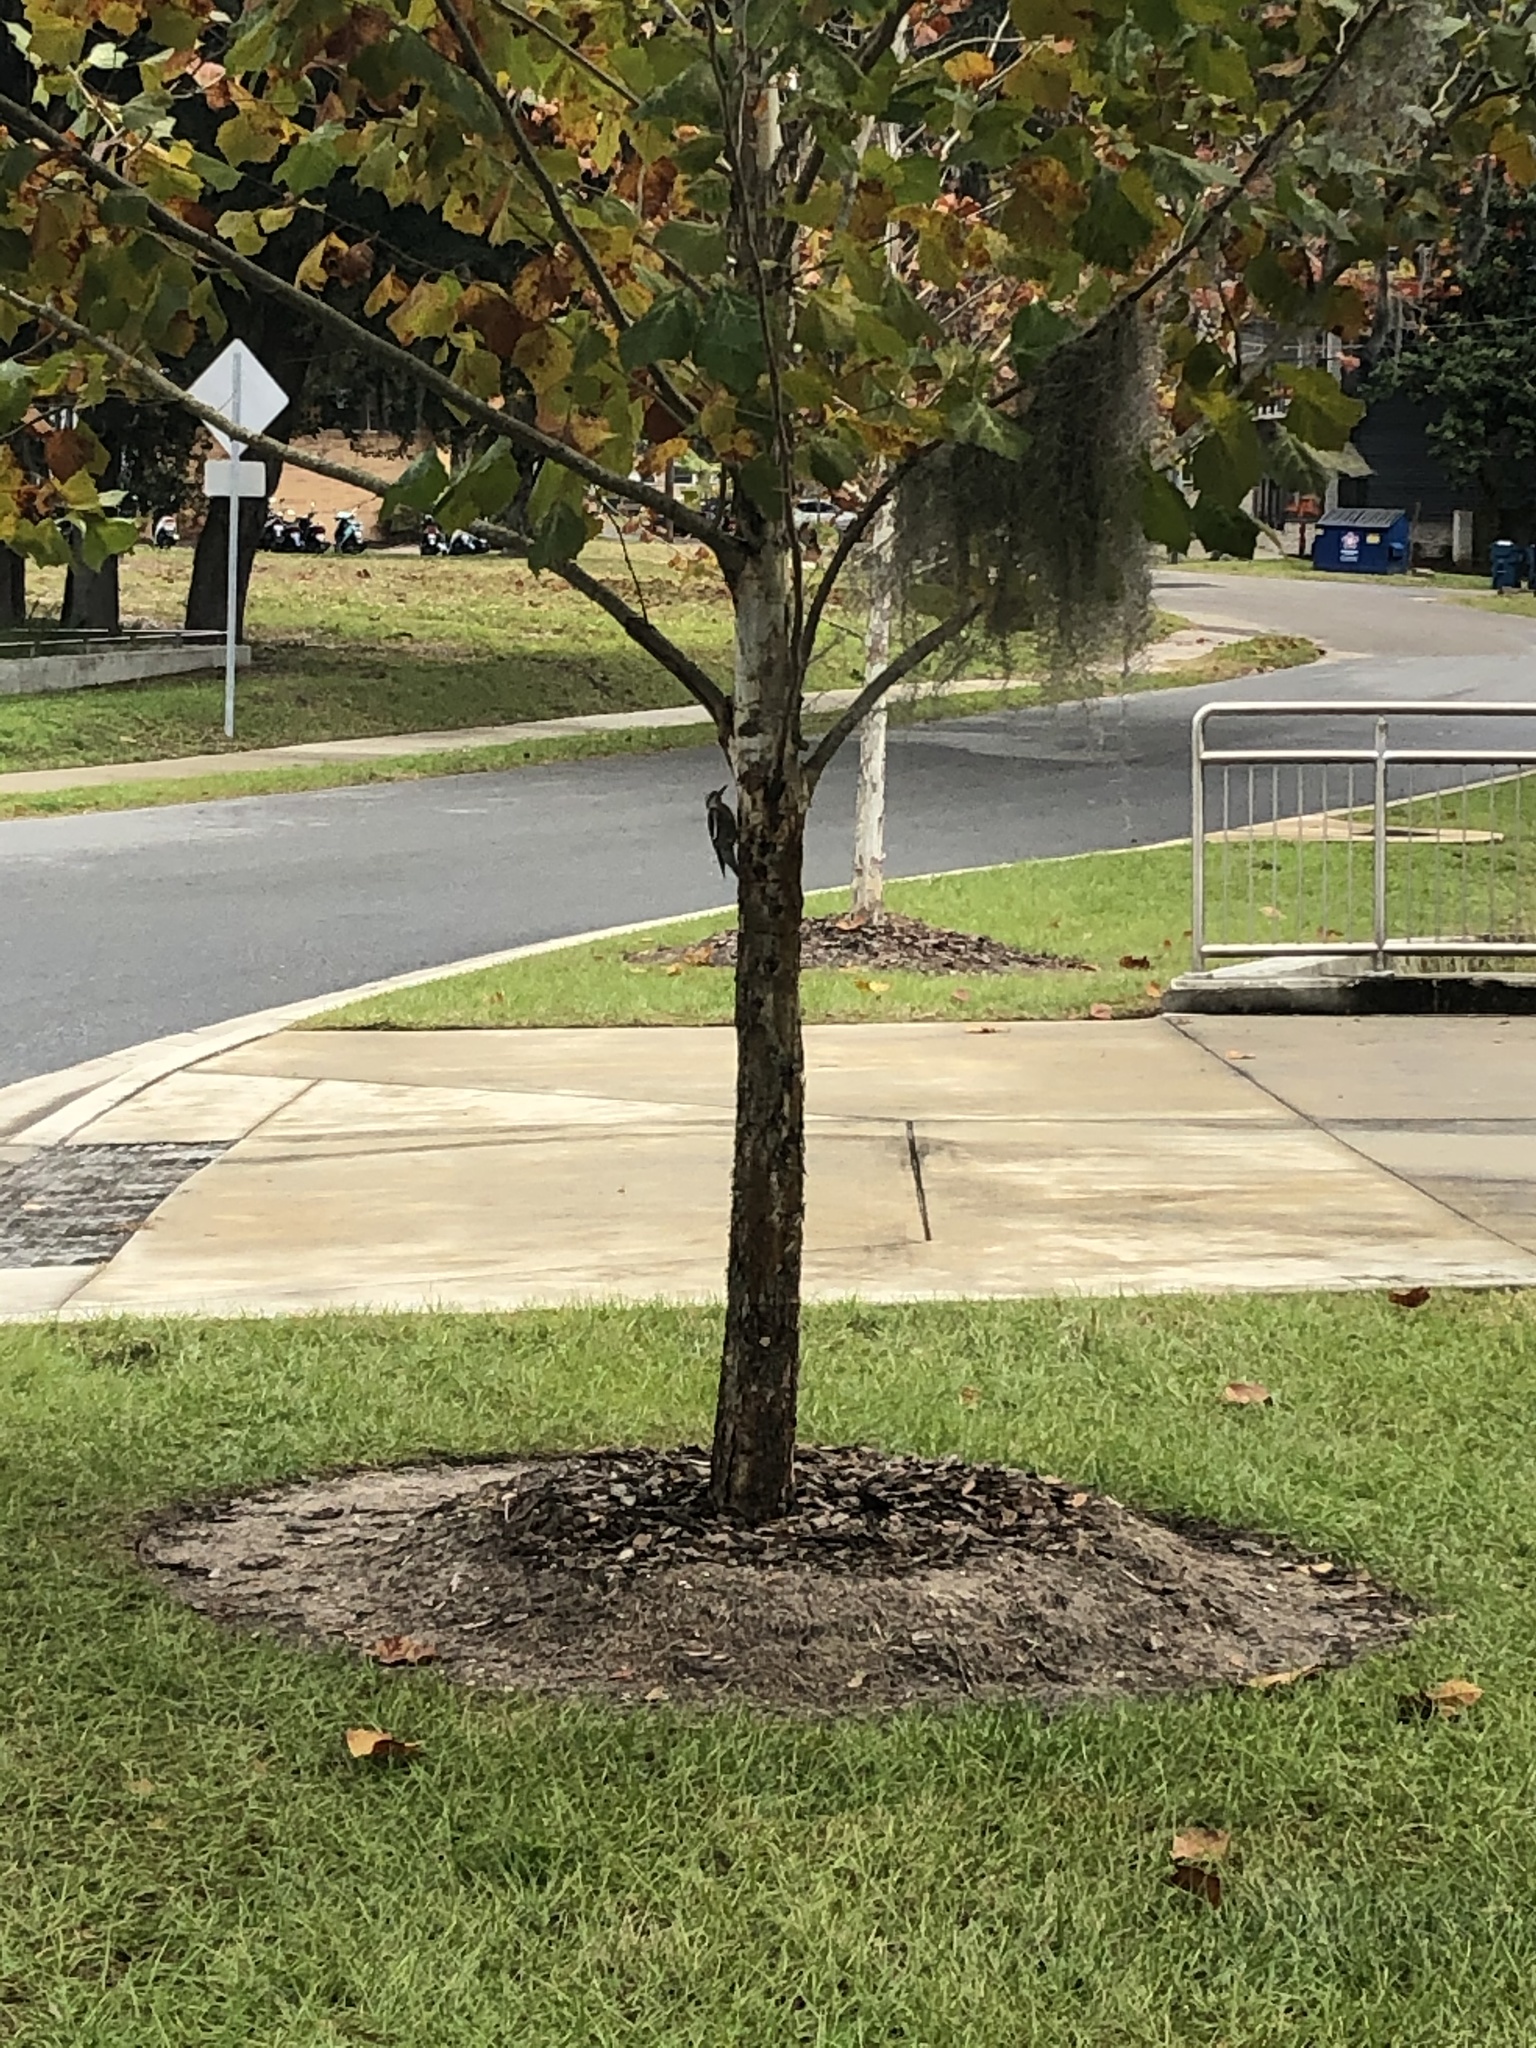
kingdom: Animalia
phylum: Chordata
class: Aves
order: Piciformes
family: Picidae
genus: Sphyrapicus
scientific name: Sphyrapicus varius
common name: Yellow-bellied sapsucker
